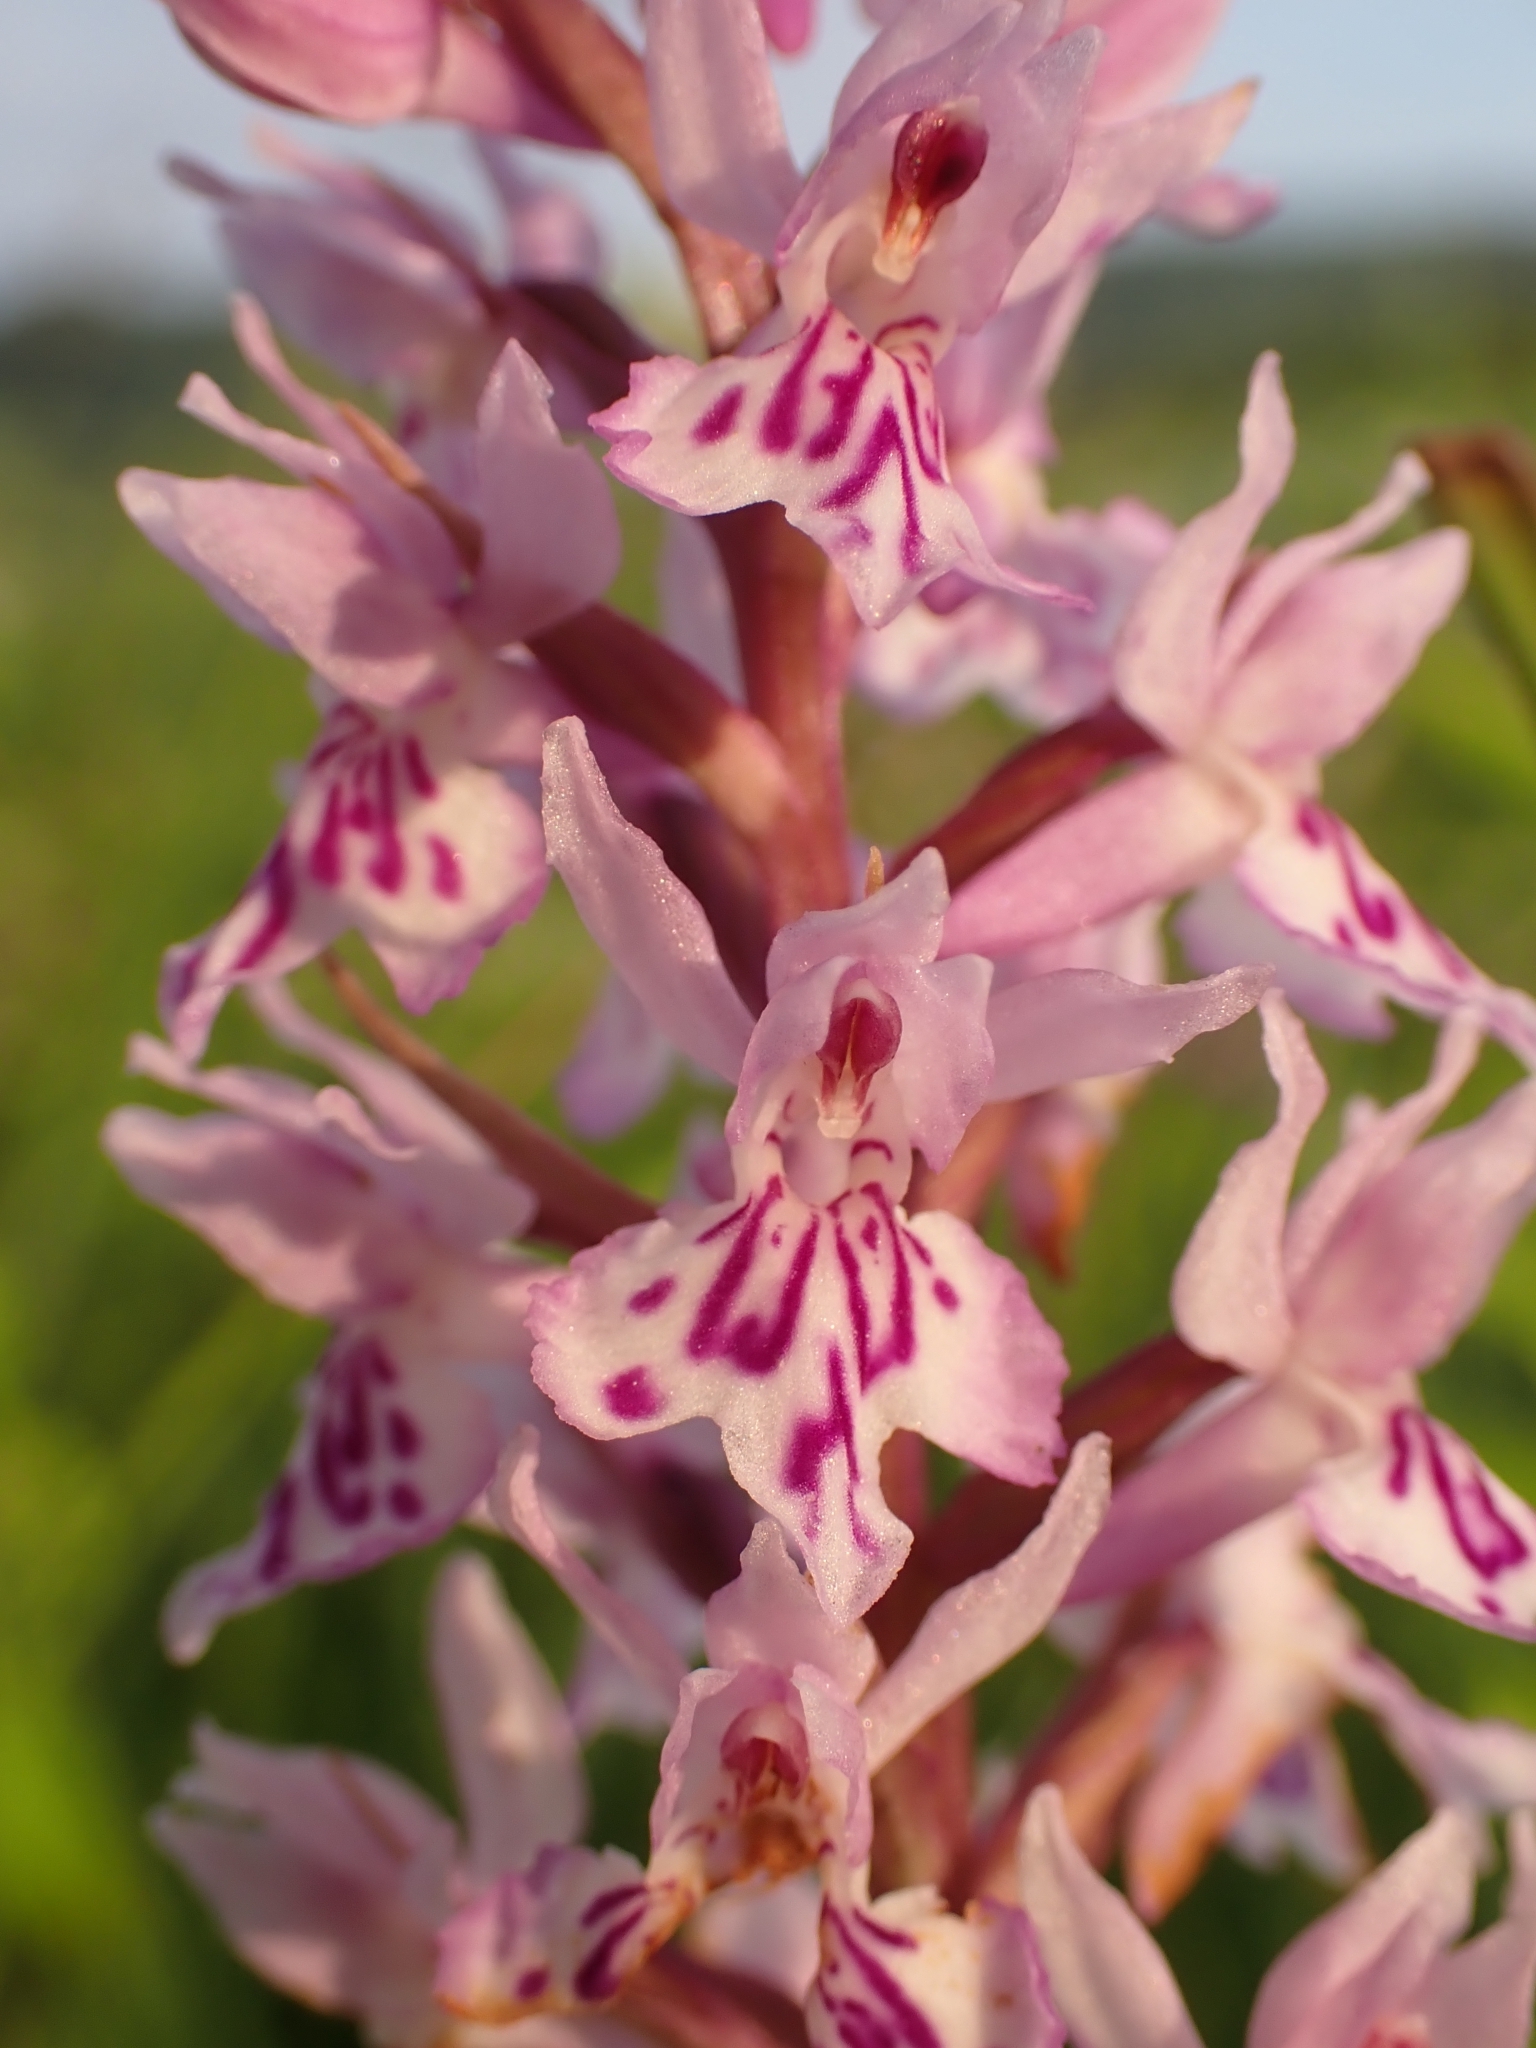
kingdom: Plantae
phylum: Tracheophyta
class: Liliopsida
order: Asparagales
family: Orchidaceae
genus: Dactylorhiza
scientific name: Dactylorhiza maculata
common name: Heath spotted-orchid
